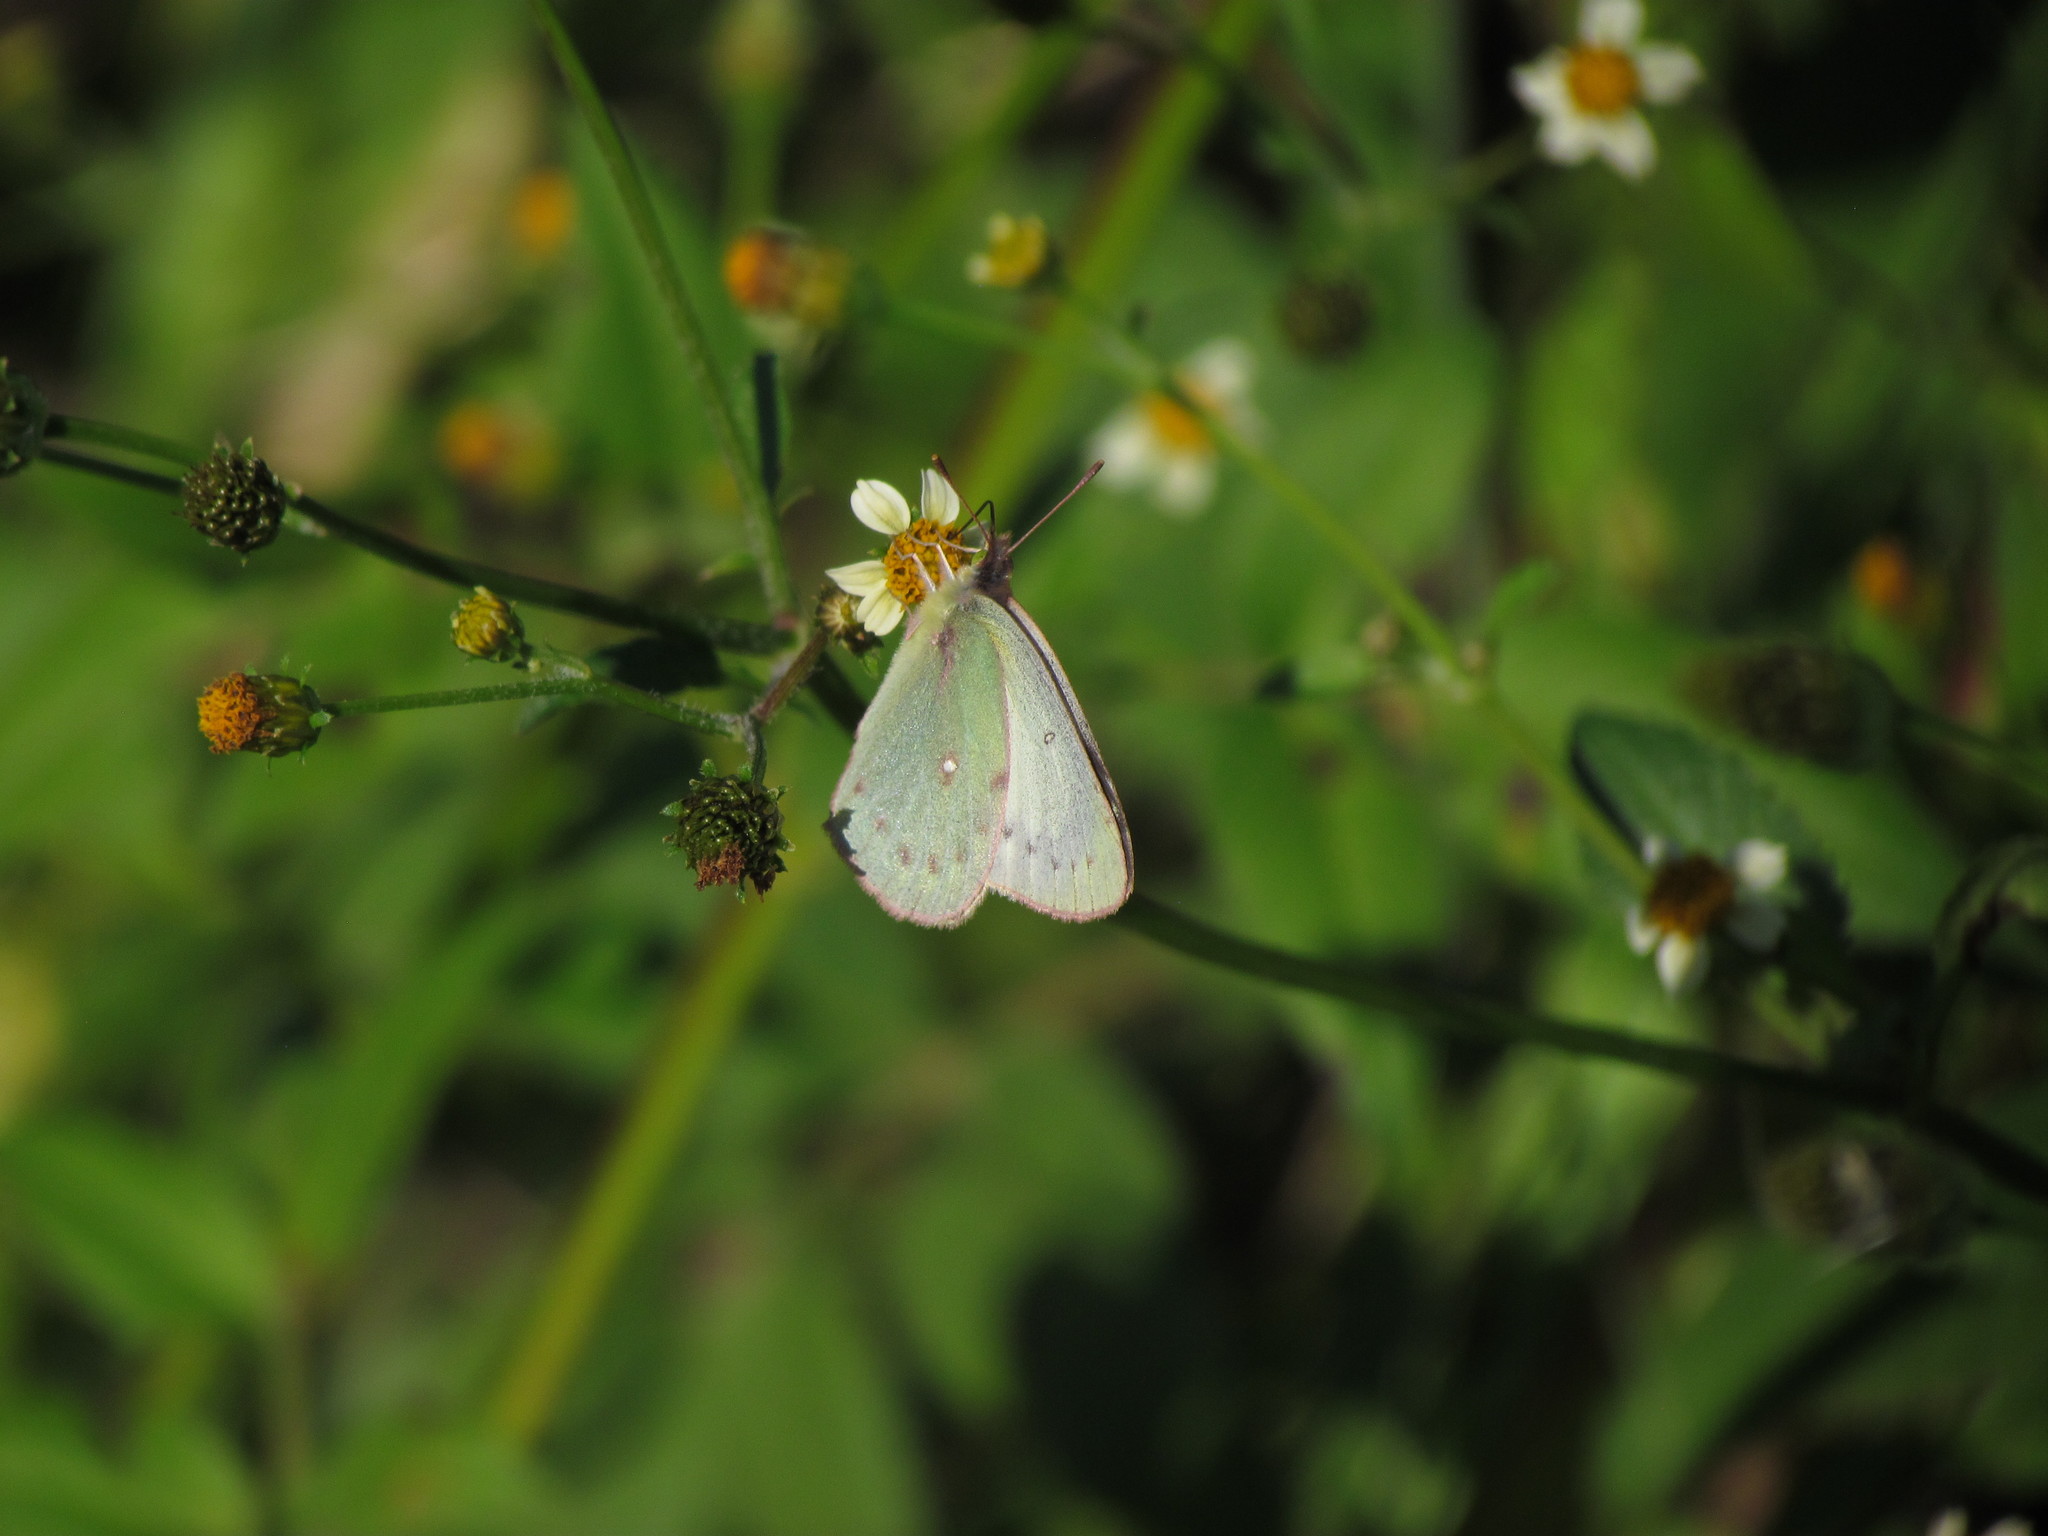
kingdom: Animalia
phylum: Arthropoda
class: Insecta
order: Lepidoptera
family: Pieridae
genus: Colias
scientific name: Colias lesbia
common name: Lesbia clouded yellow
